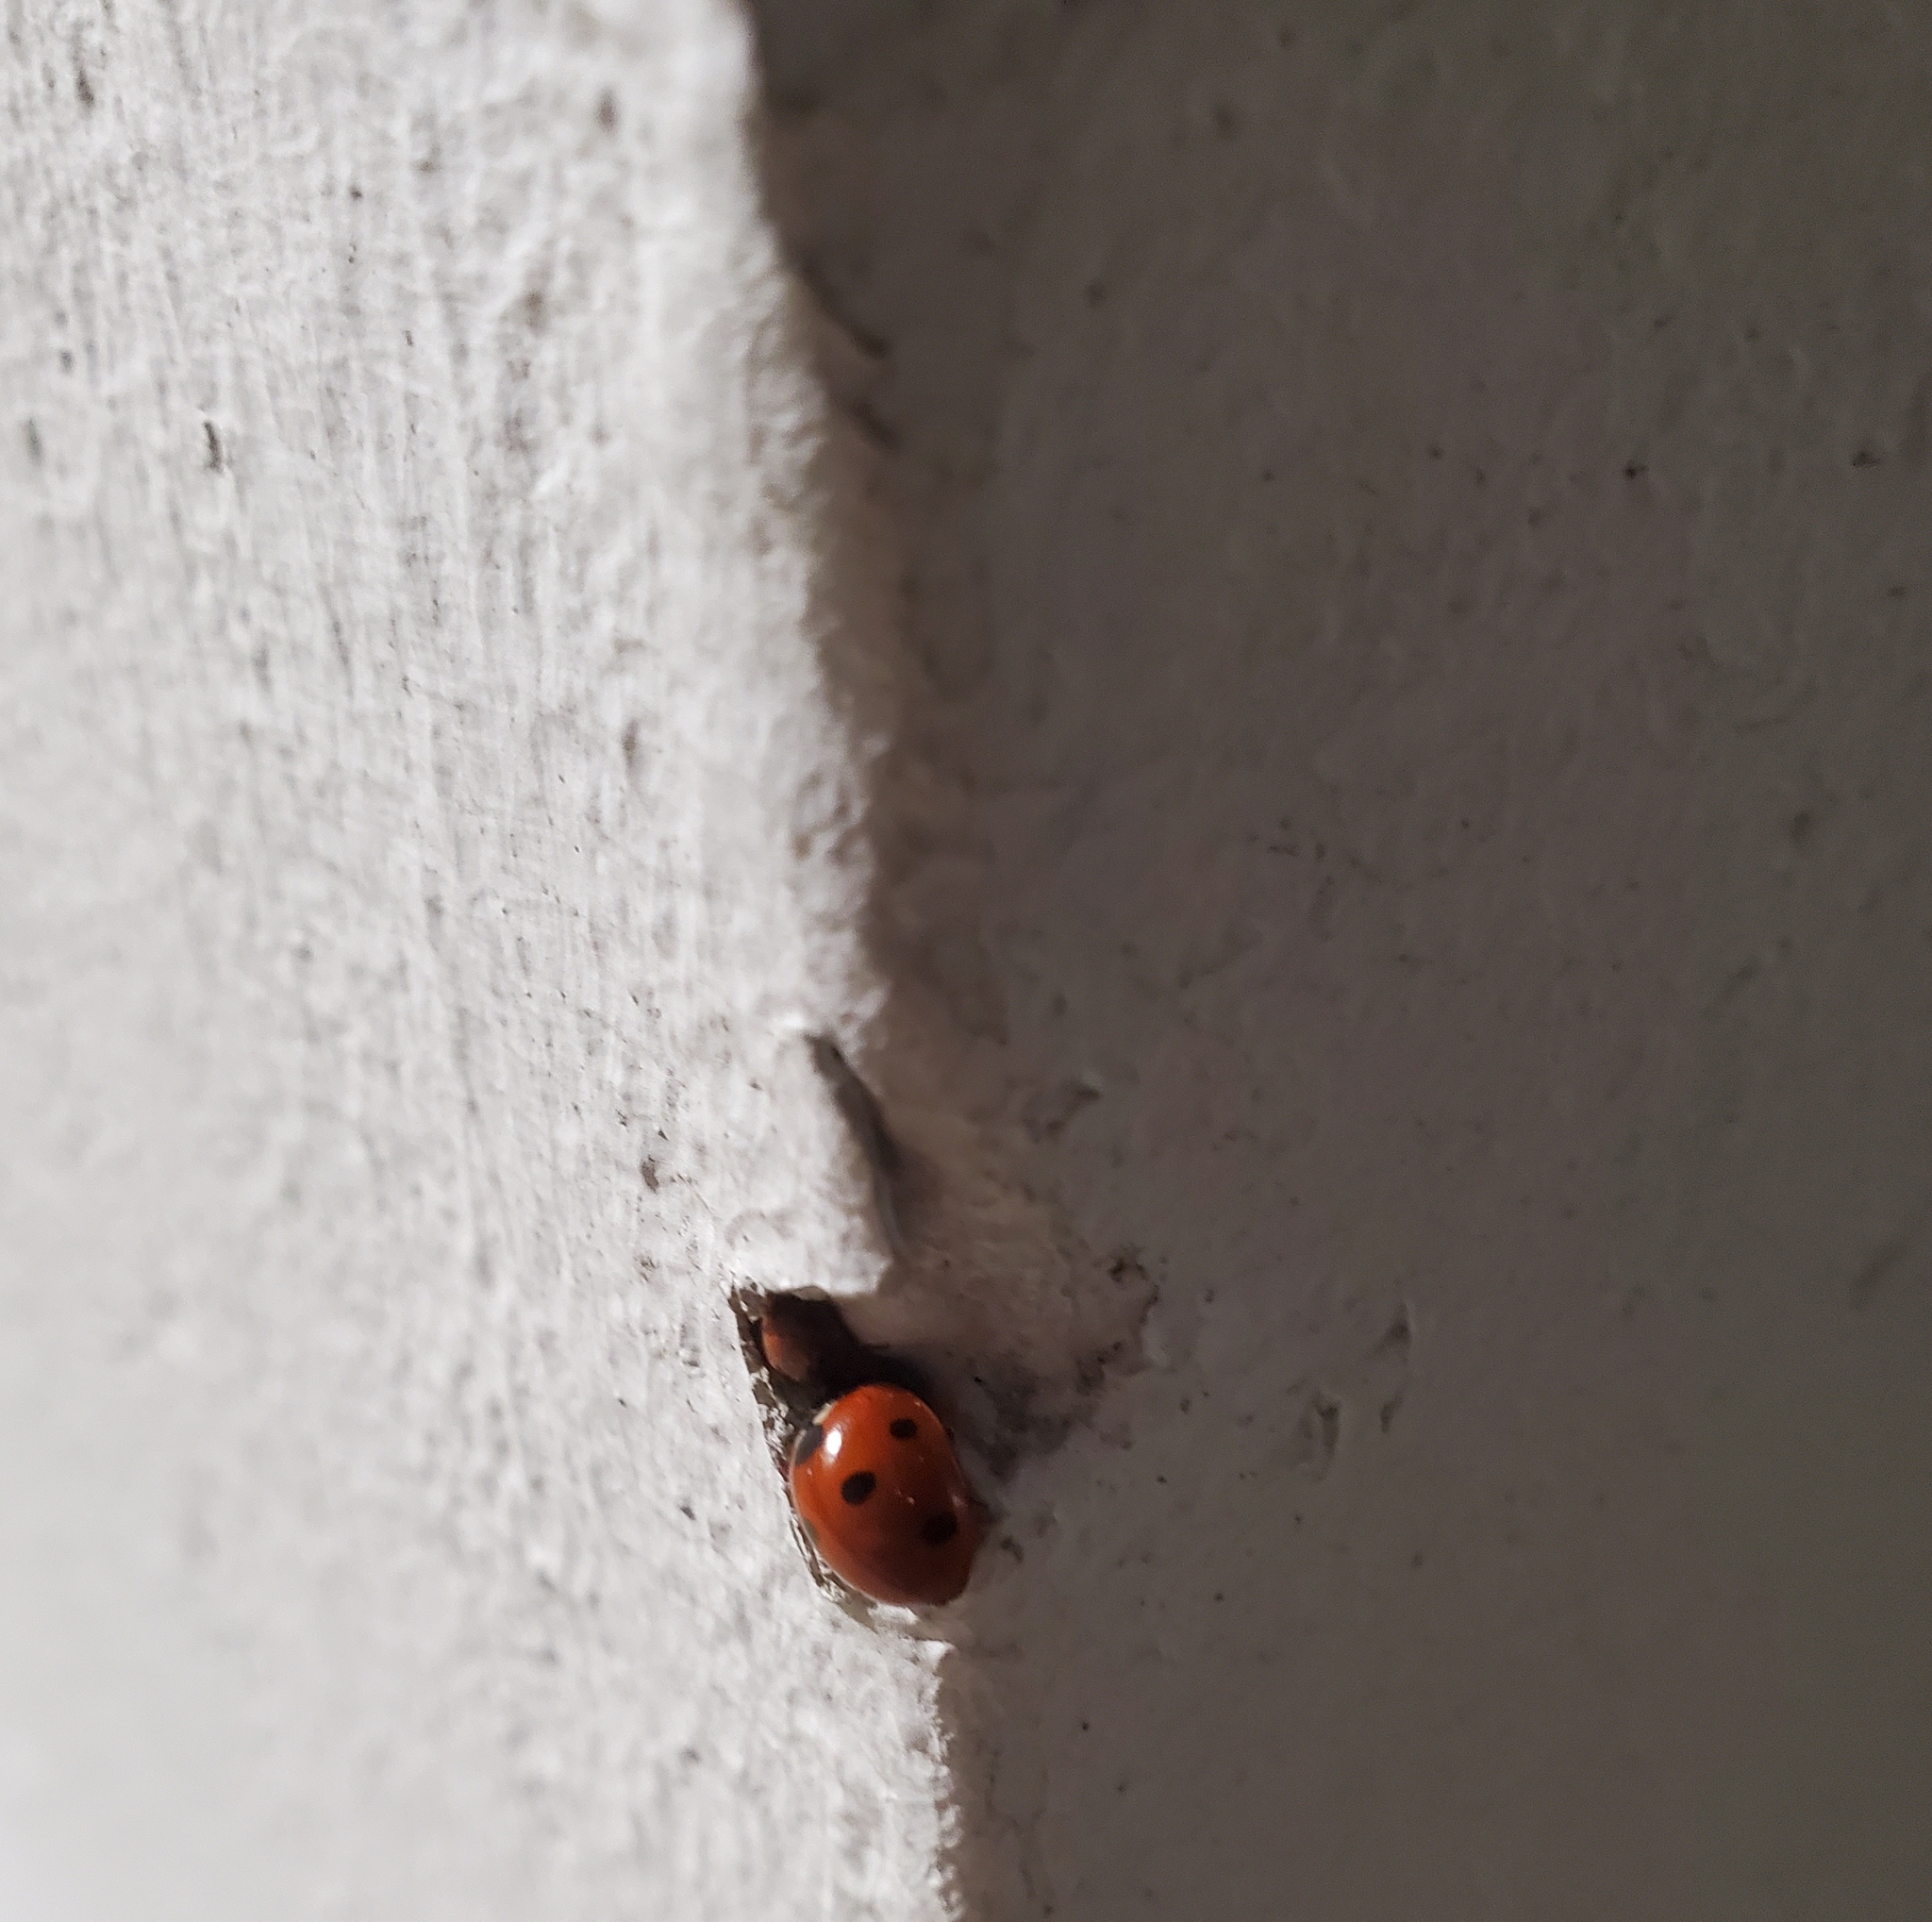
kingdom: Animalia
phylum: Arthropoda
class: Insecta
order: Coleoptera
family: Coccinellidae
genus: Coccinella
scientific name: Coccinella septempunctata
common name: Sevenspotted lady beetle
